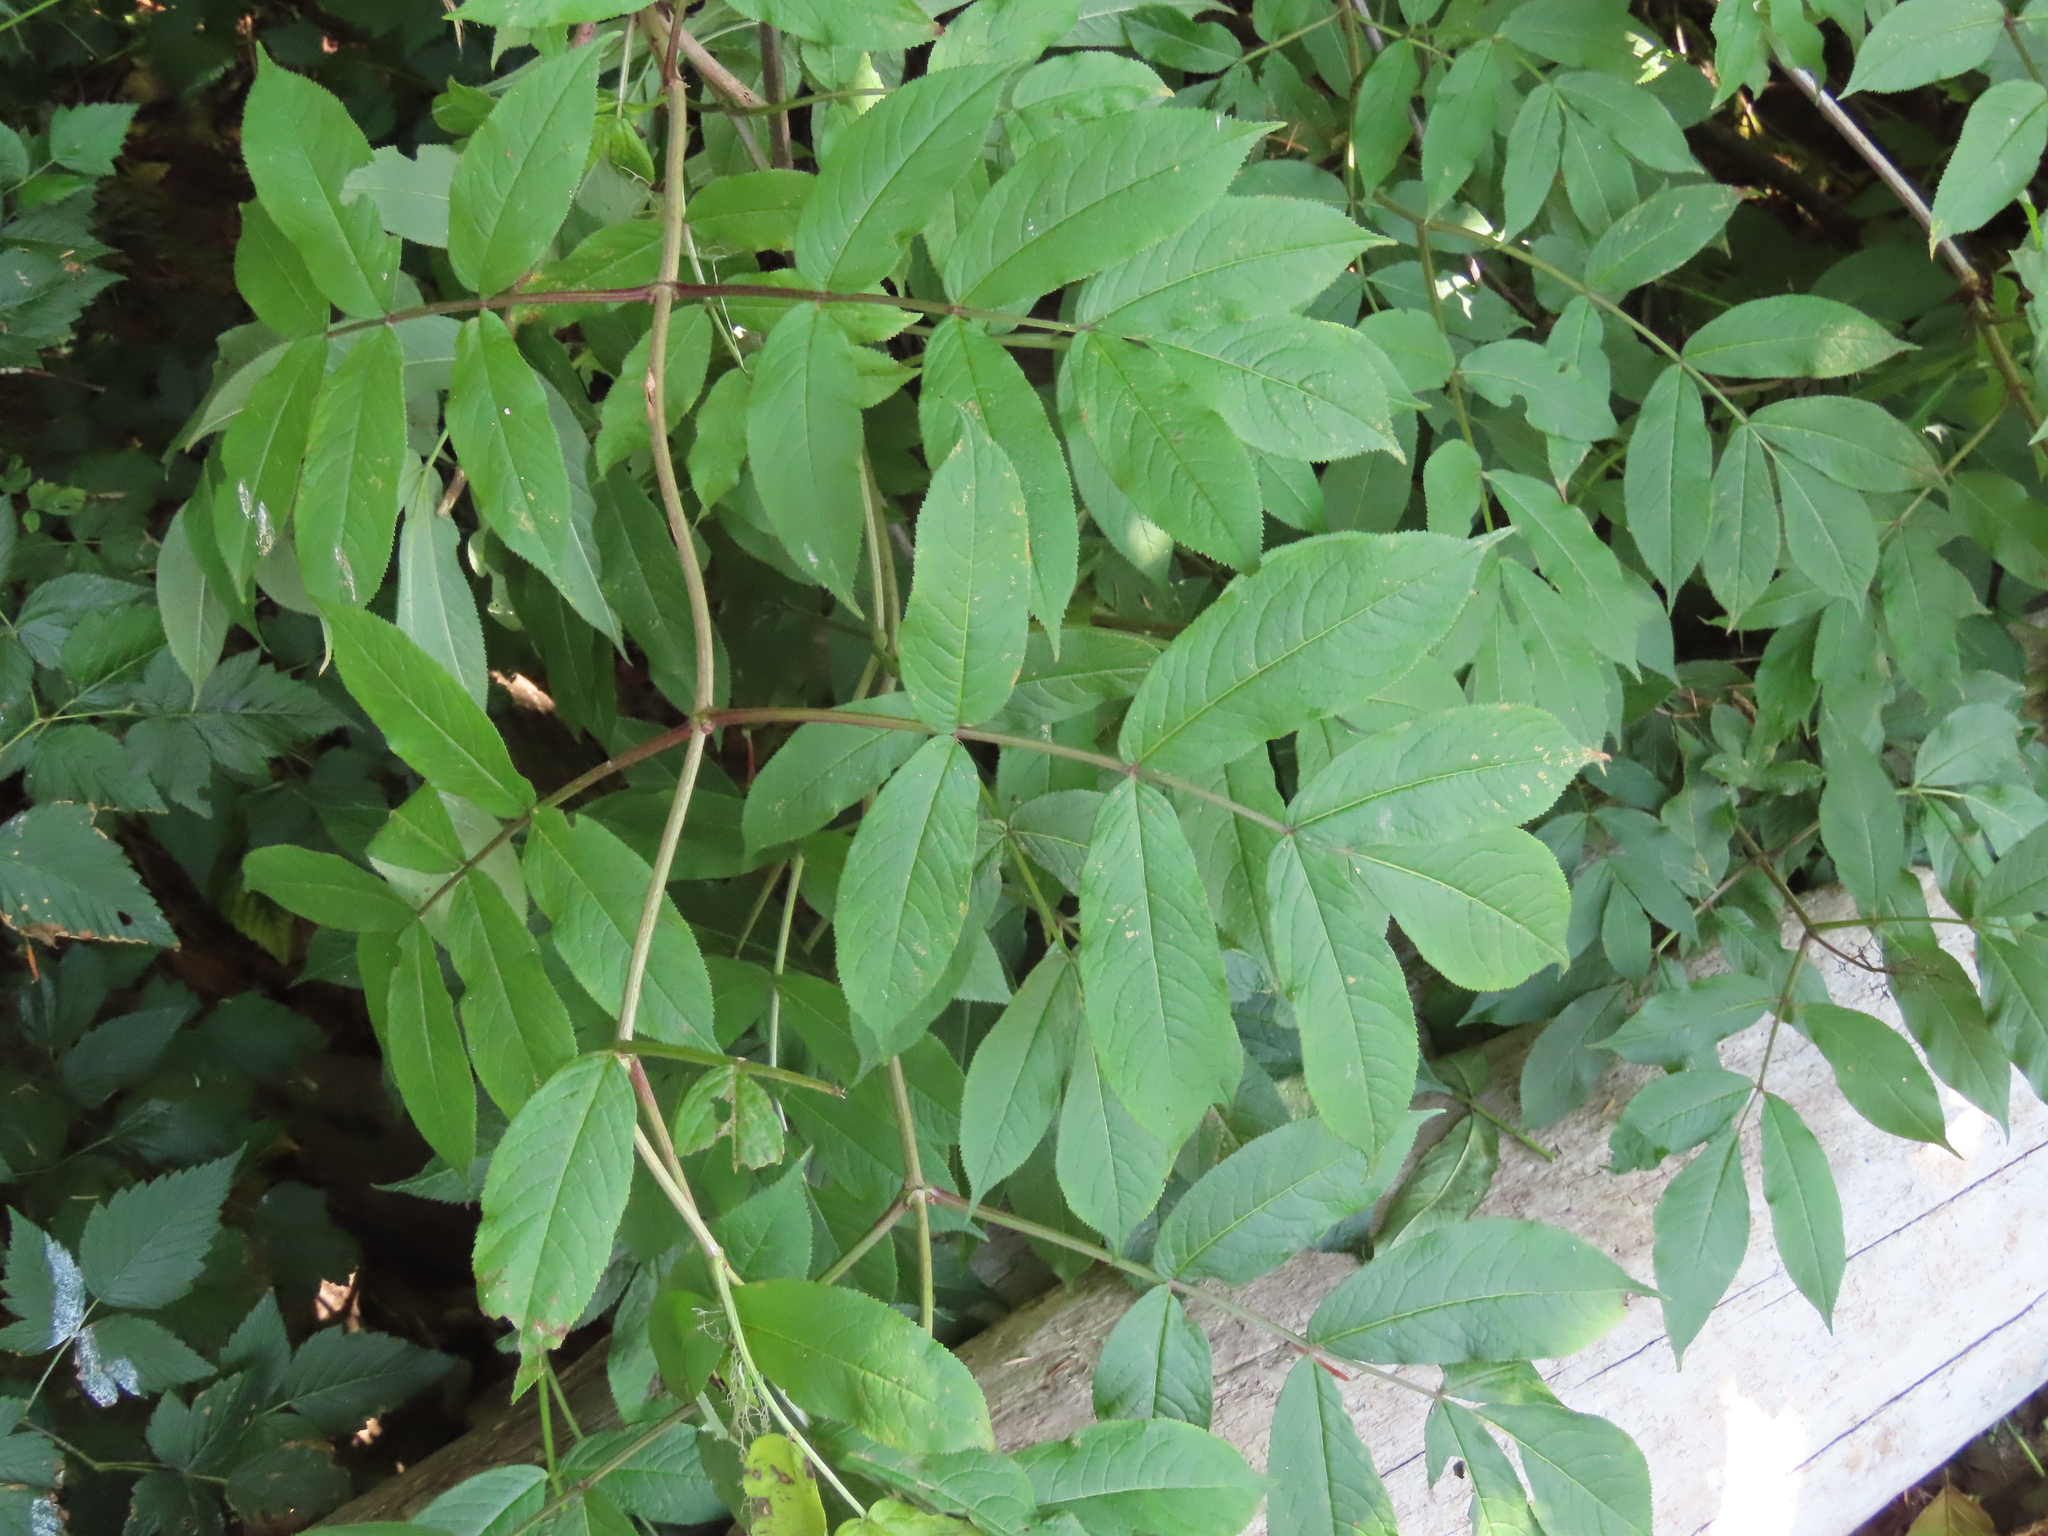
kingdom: Plantae
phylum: Tracheophyta
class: Magnoliopsida
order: Dipsacales
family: Viburnaceae
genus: Sambucus
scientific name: Sambucus racemosa
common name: Red-berried elder
